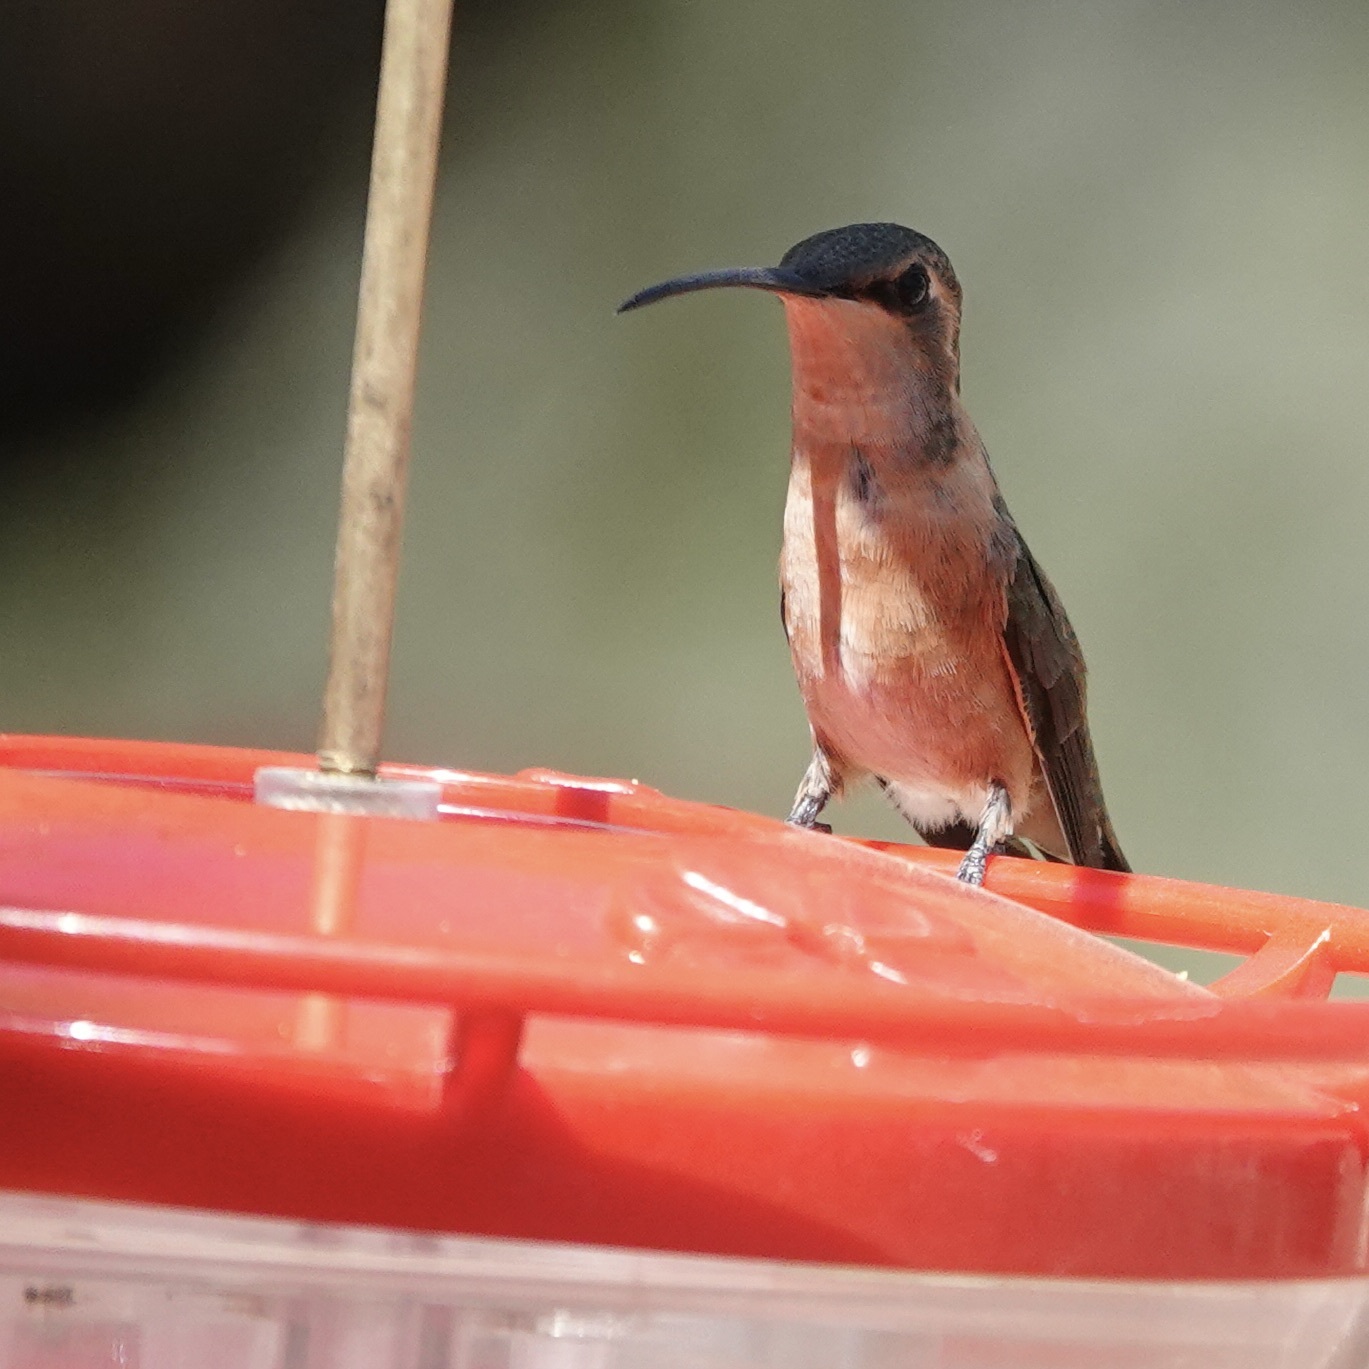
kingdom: Animalia
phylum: Chordata
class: Aves
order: Apodiformes
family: Trochilidae
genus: Calothorax
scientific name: Calothorax lucifer
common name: Lucifer sheartail
